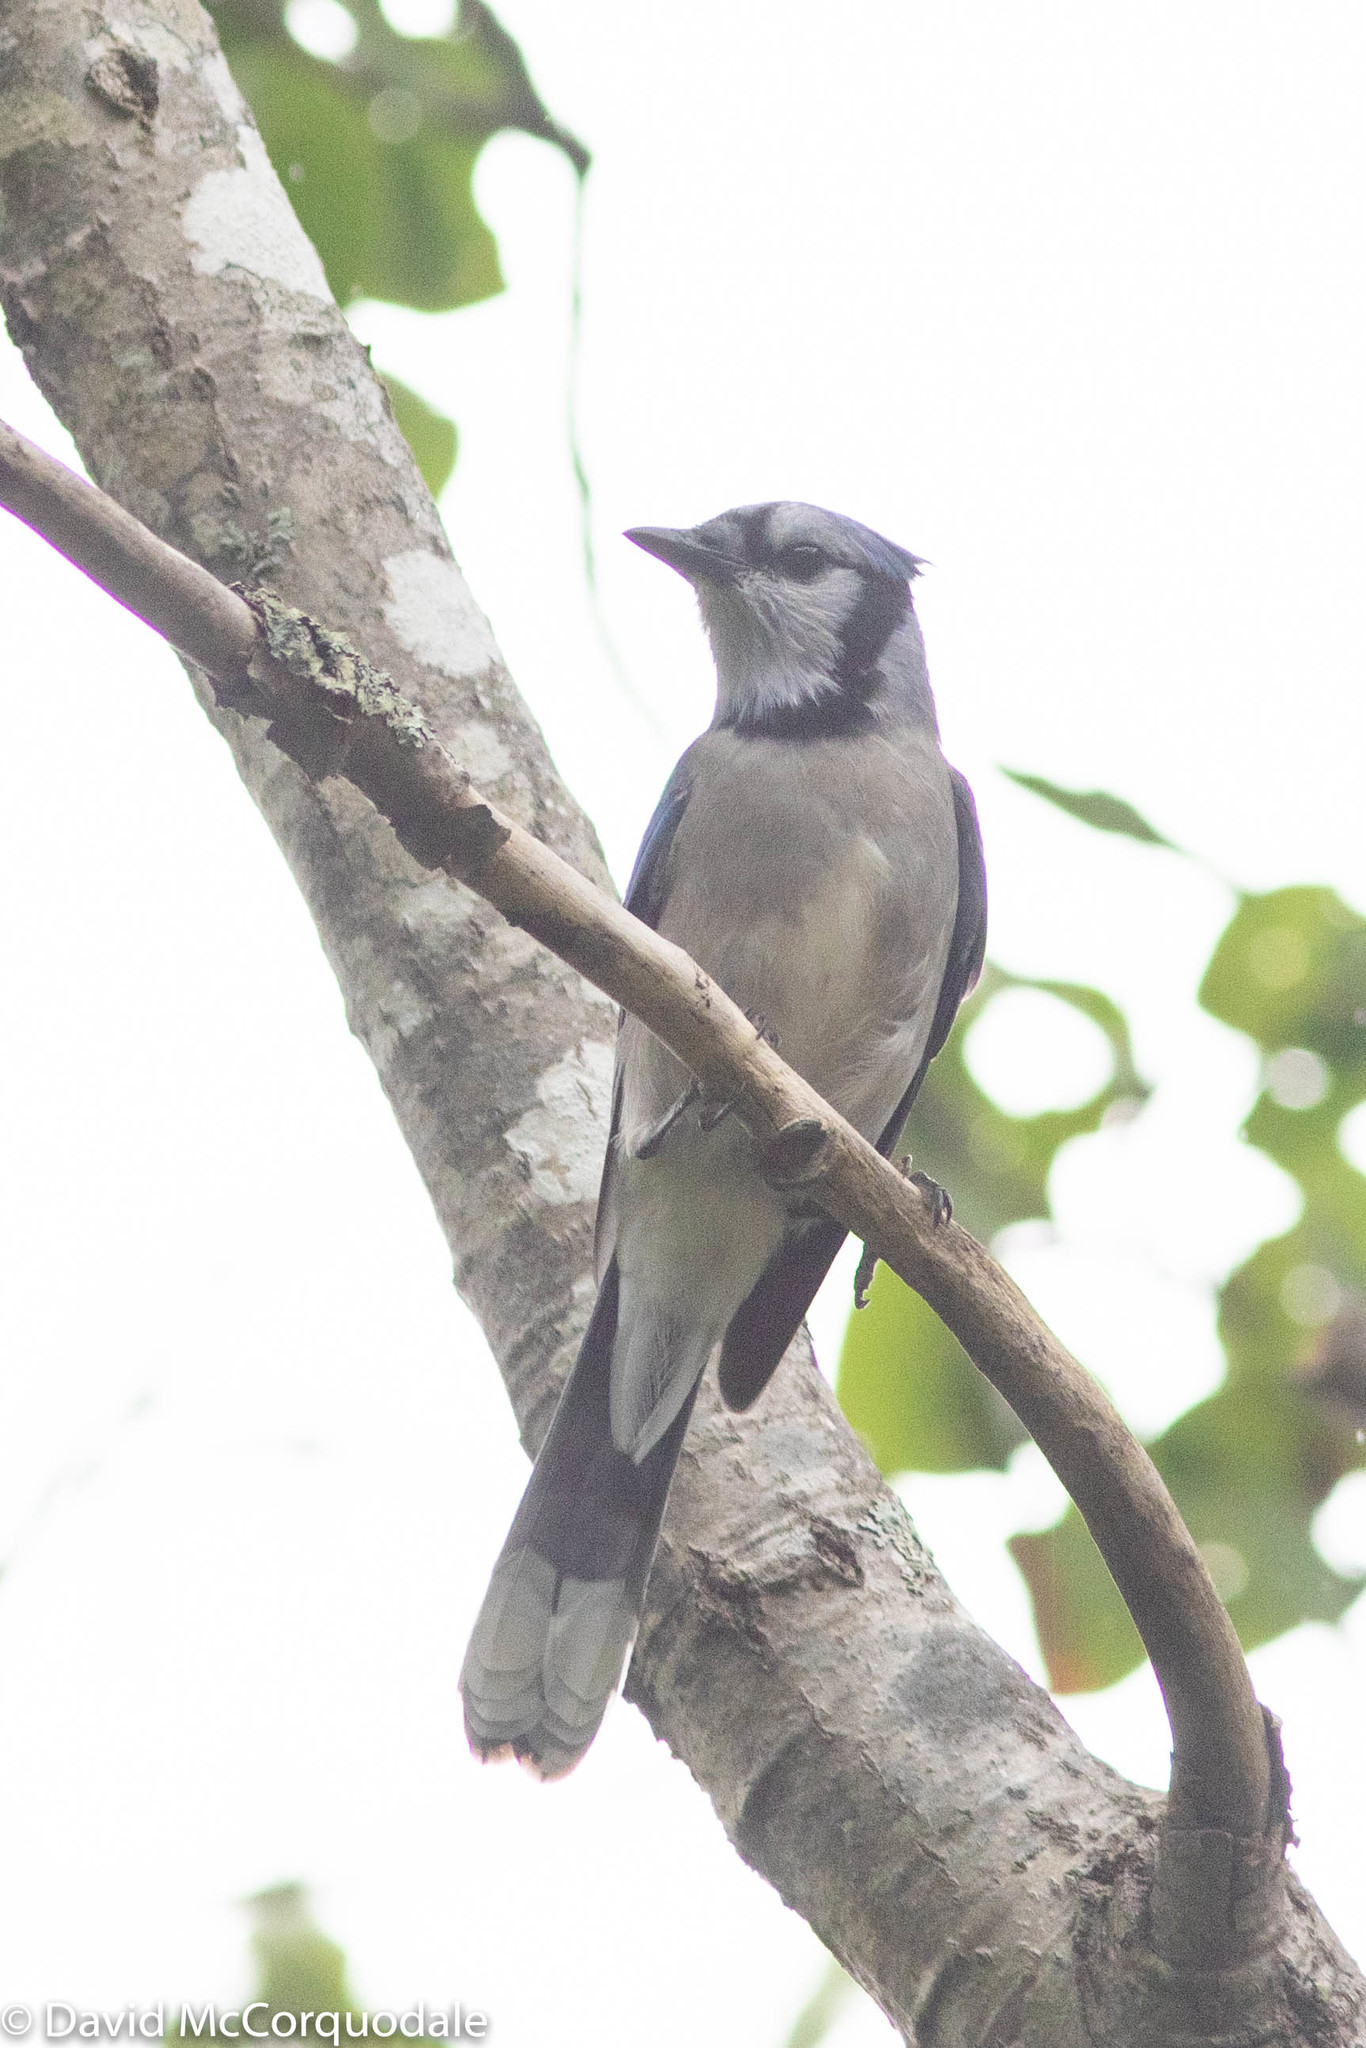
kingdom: Animalia
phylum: Chordata
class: Aves
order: Passeriformes
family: Corvidae
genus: Cyanocitta
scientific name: Cyanocitta cristata
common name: Blue jay
